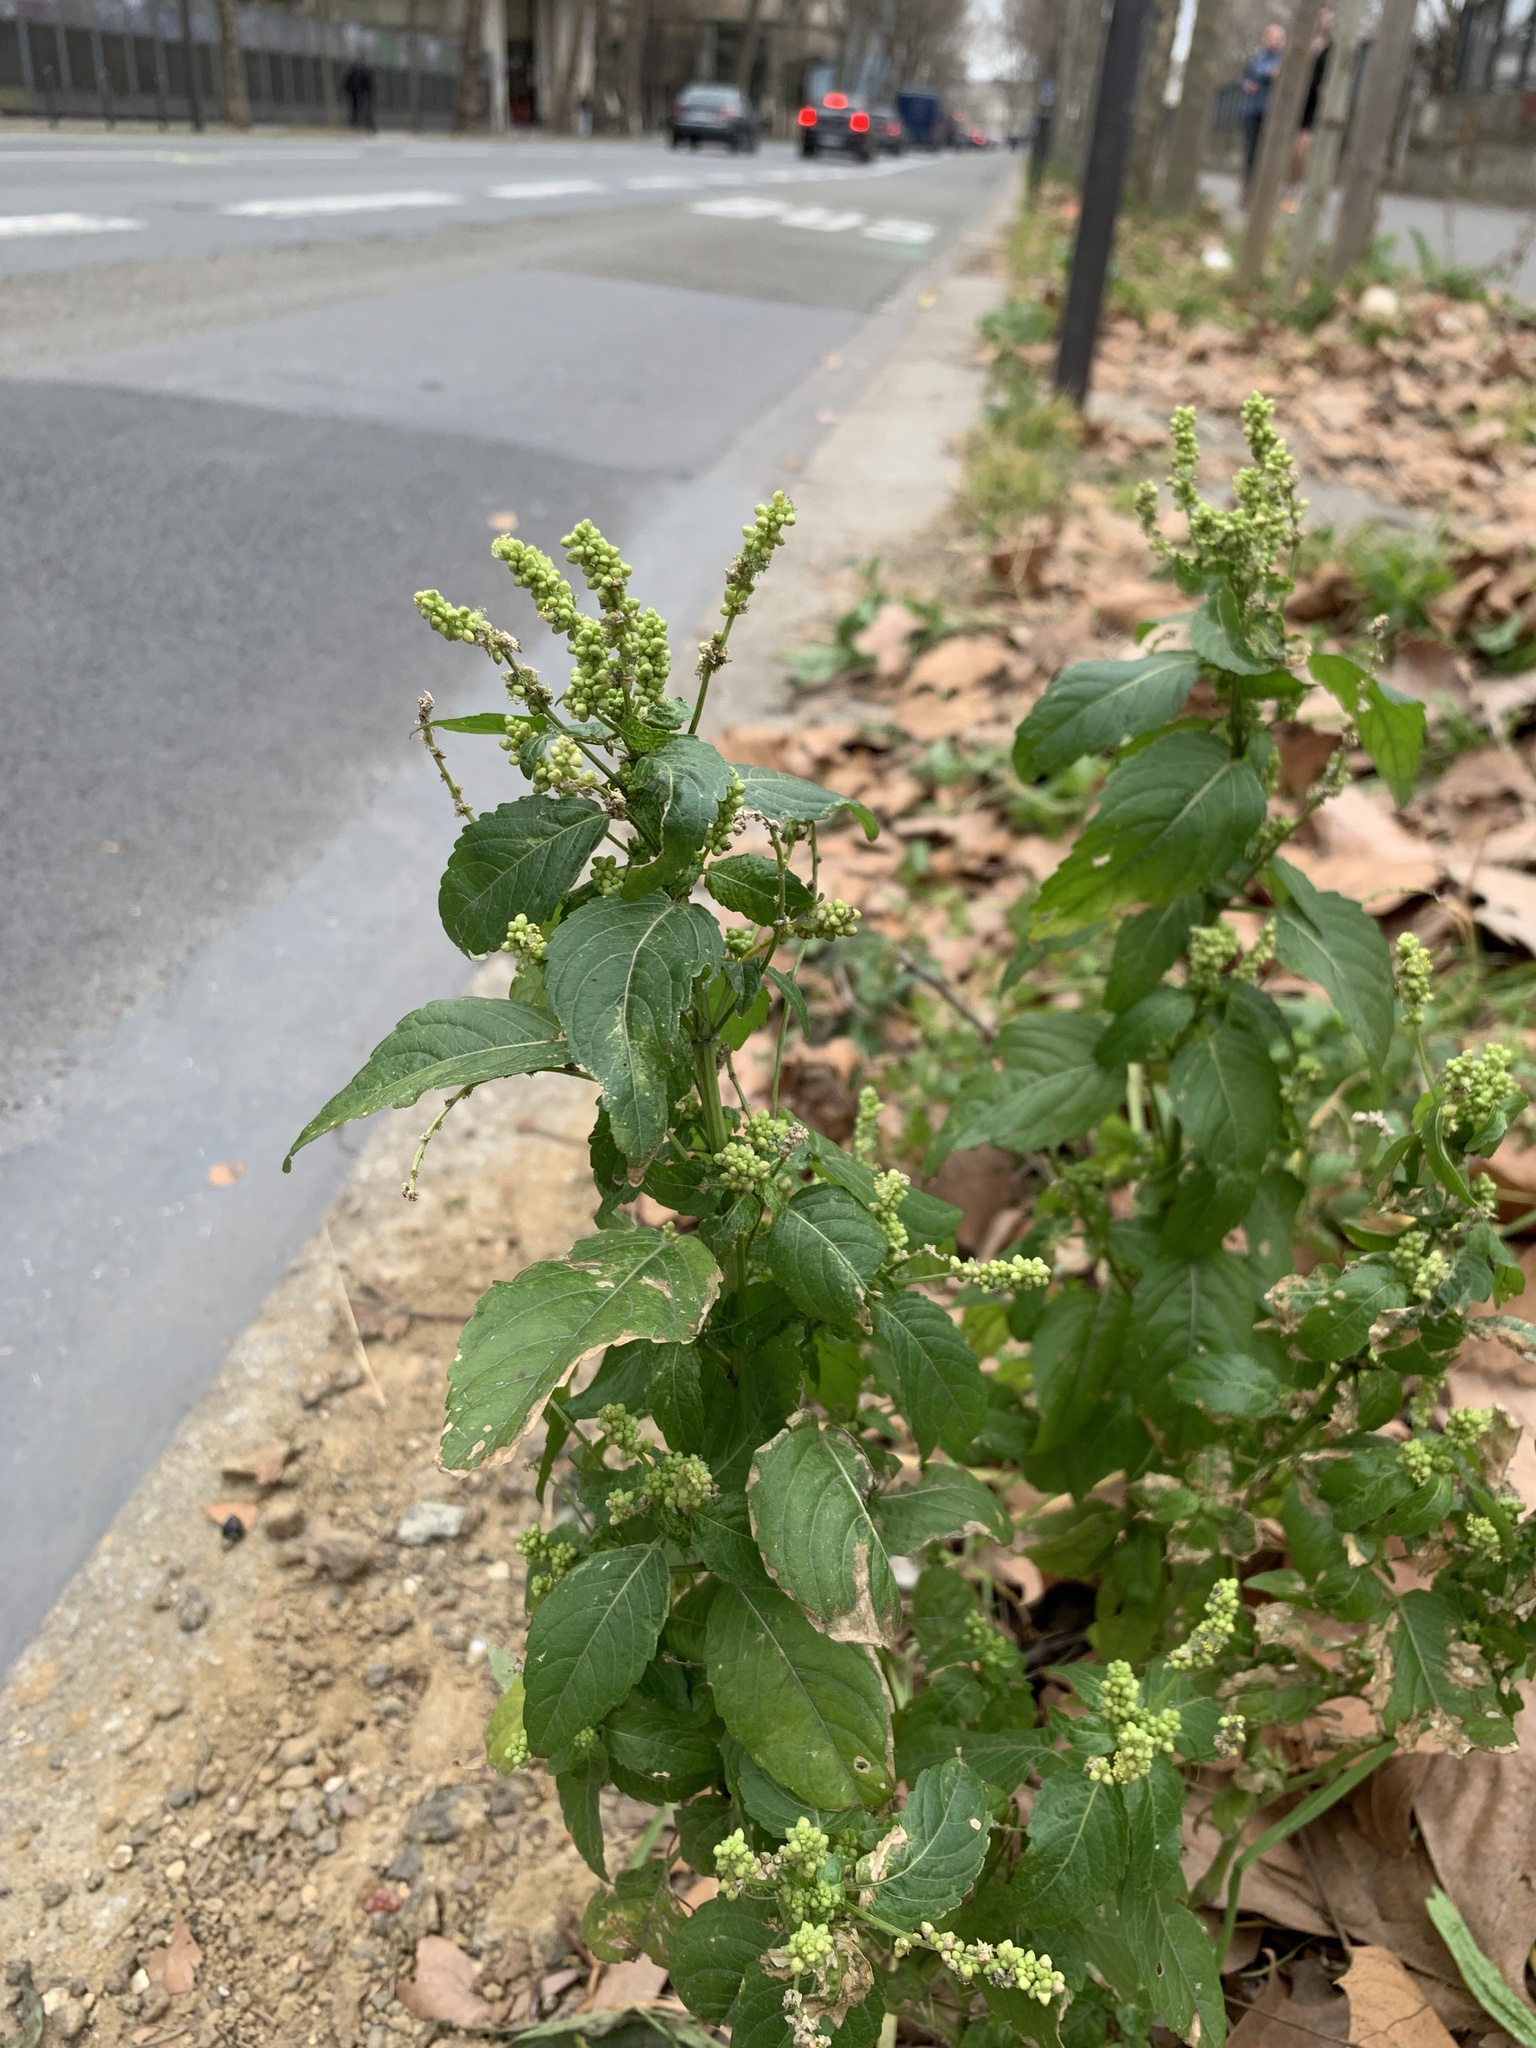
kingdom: Plantae
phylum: Tracheophyta
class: Magnoliopsida
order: Malpighiales
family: Euphorbiaceae
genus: Mercurialis
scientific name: Mercurialis annua
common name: Annual mercury
